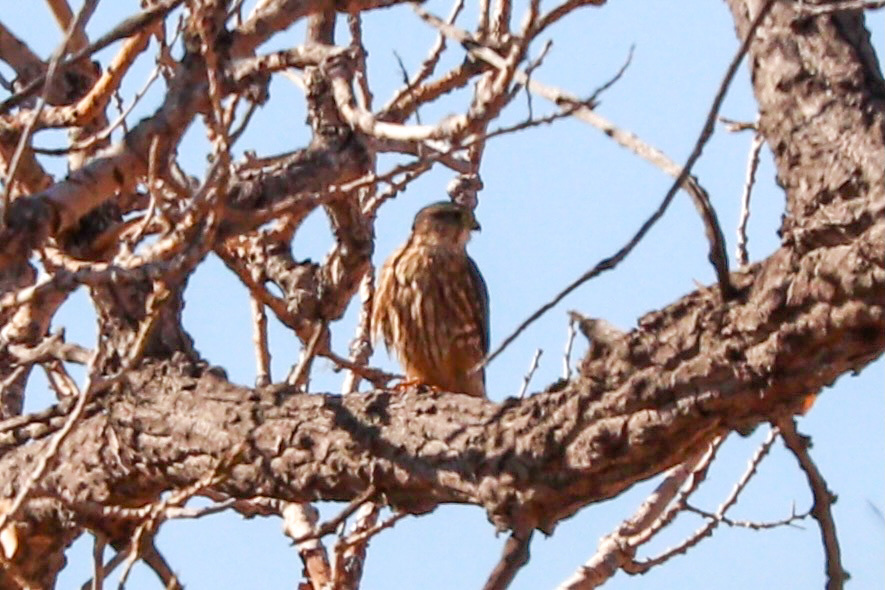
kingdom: Animalia
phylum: Chordata
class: Aves
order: Falconiformes
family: Falconidae
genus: Falco
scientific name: Falco columbarius
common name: Merlin
